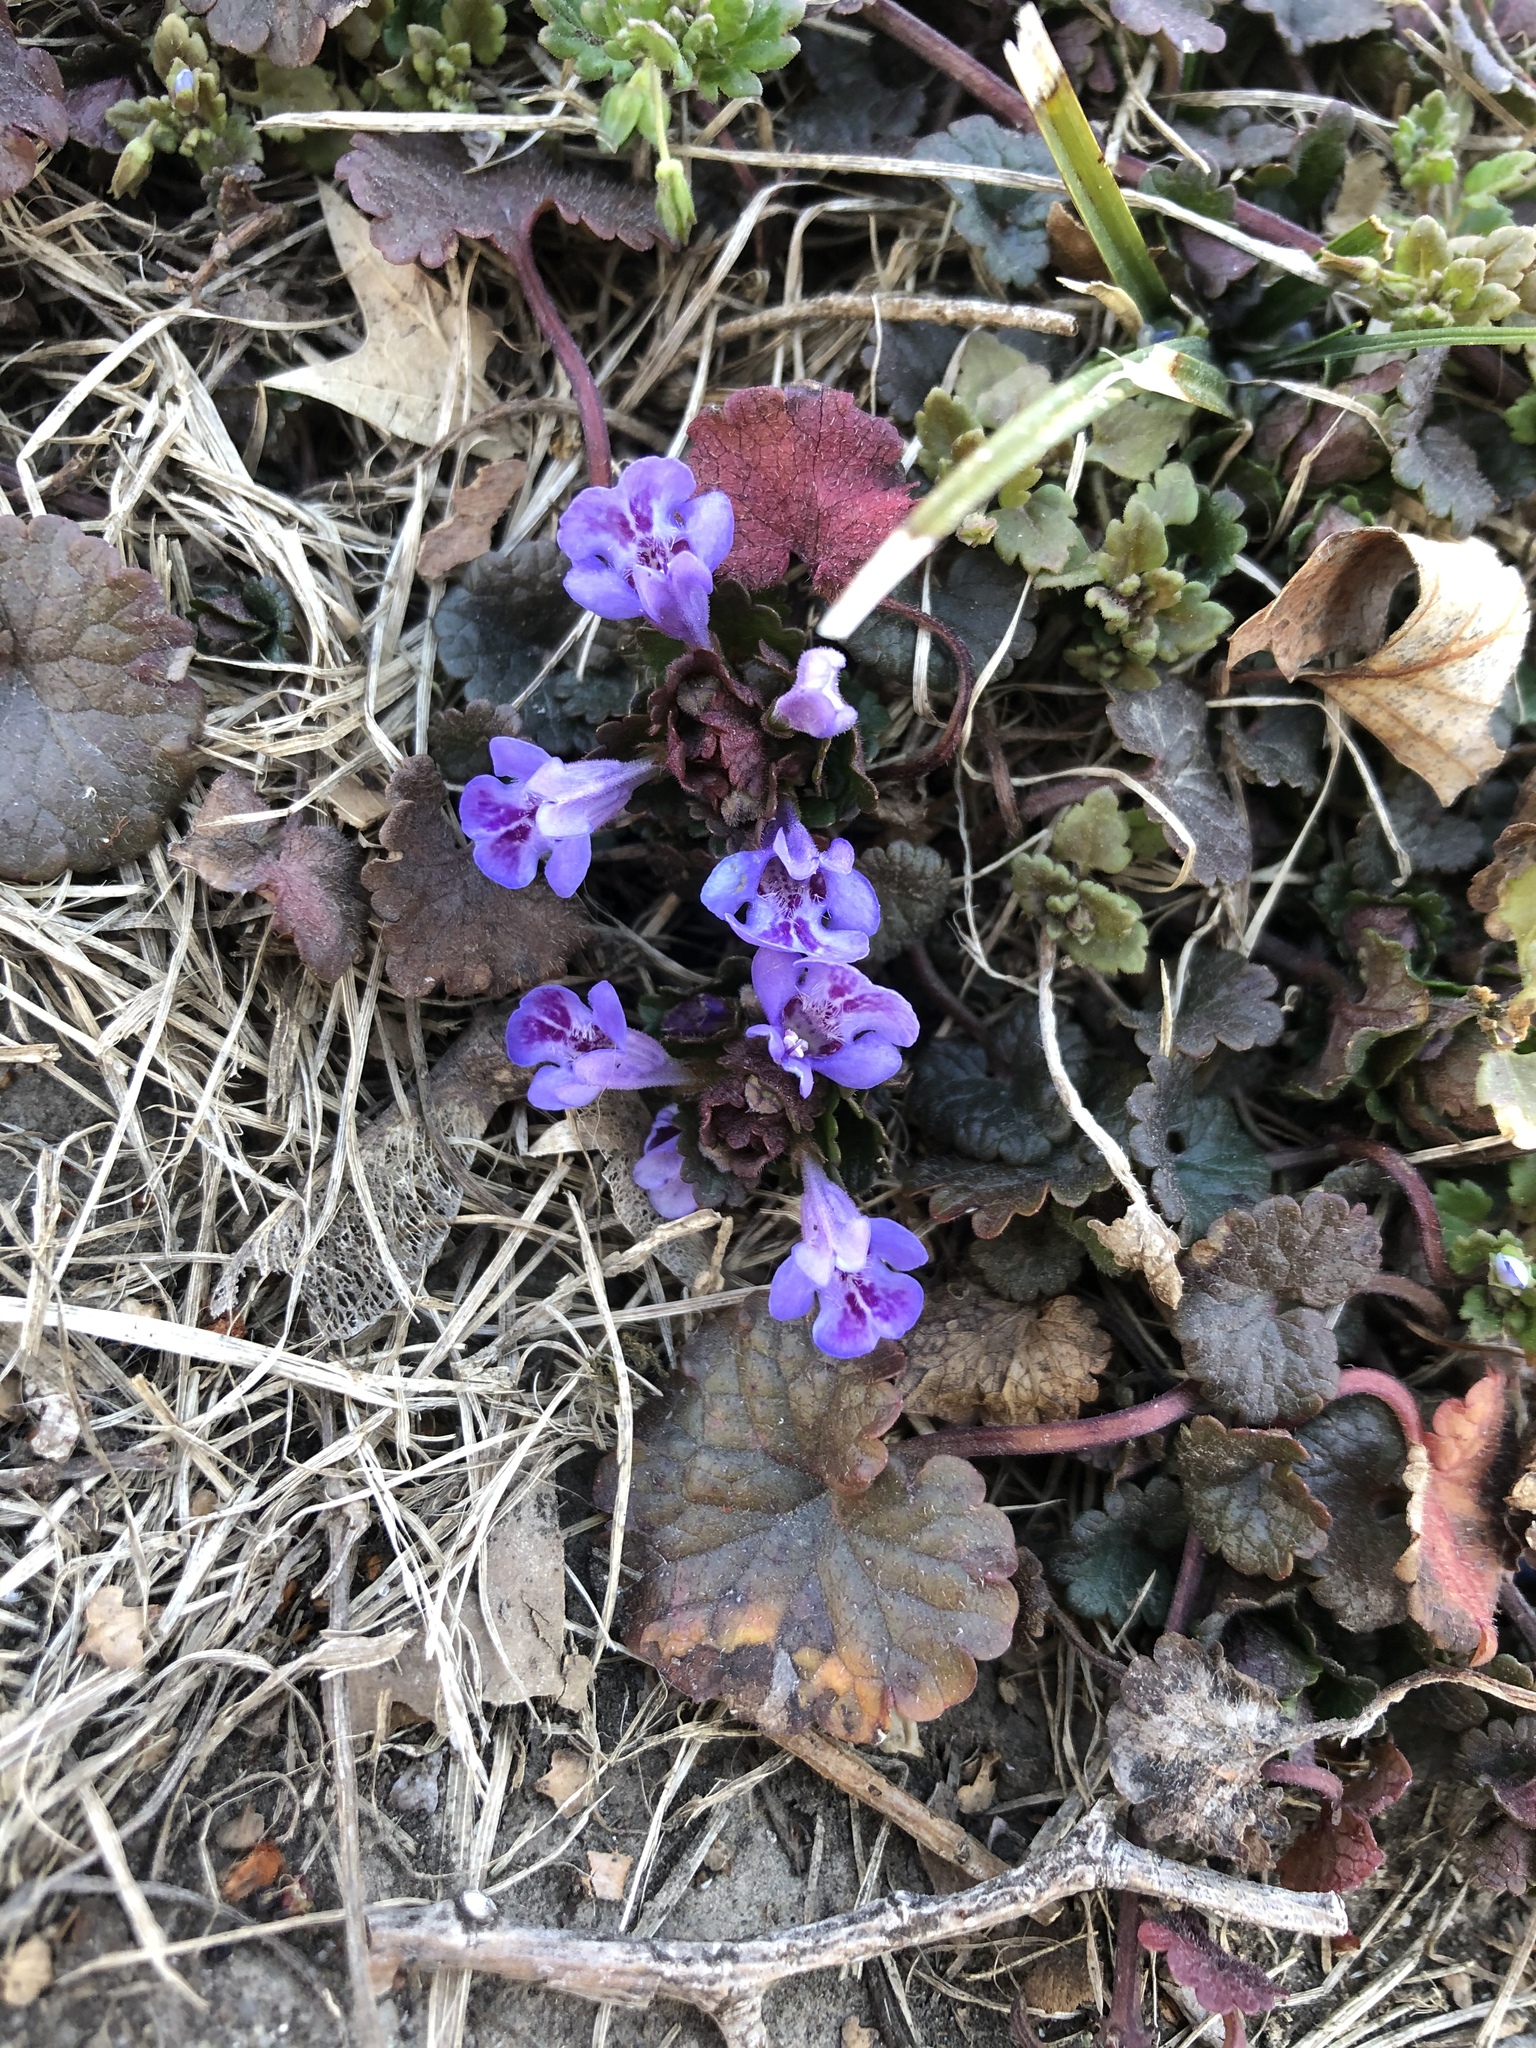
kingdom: Plantae
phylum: Tracheophyta
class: Magnoliopsida
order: Lamiales
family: Lamiaceae
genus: Glechoma
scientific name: Glechoma hederacea
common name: Ground ivy
